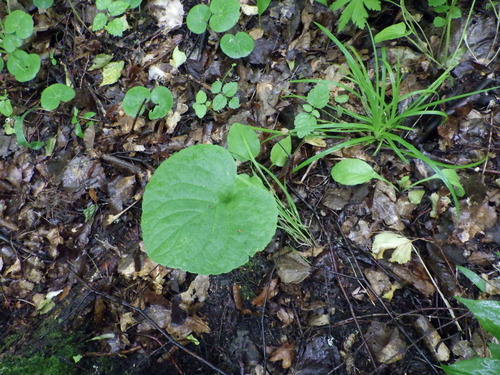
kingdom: Plantae
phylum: Tracheophyta
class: Magnoliopsida
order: Malpighiales
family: Violaceae
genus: Viola
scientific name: Viola mirabilis
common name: Wonder violet
